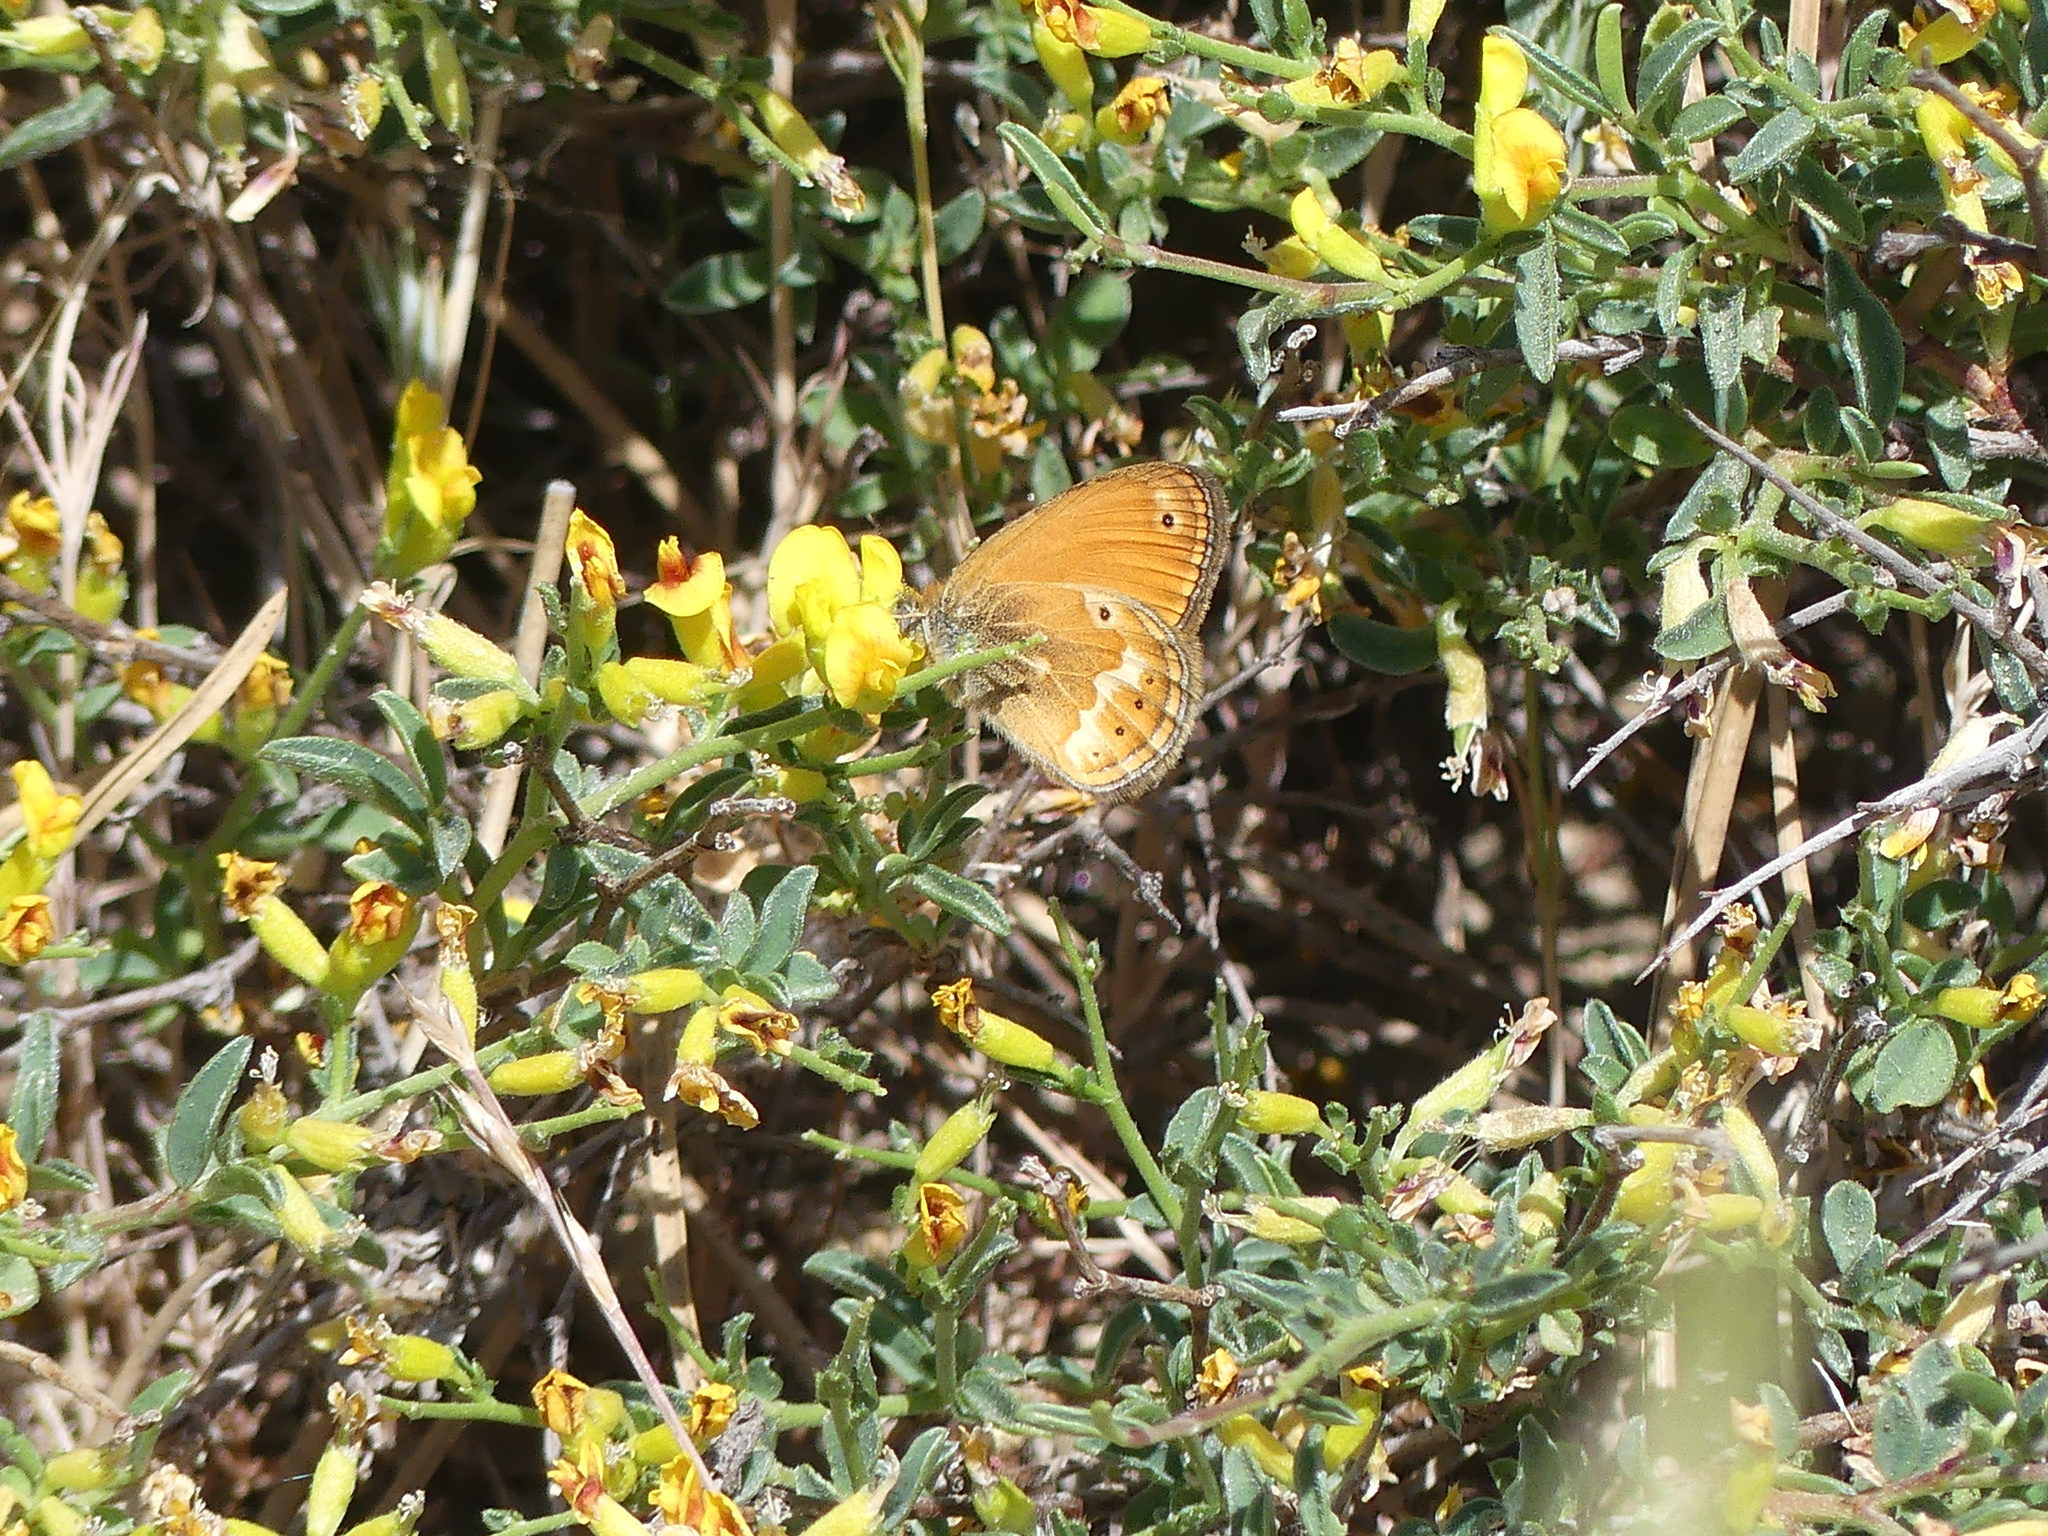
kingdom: Animalia
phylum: Arthropoda
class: Insecta
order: Lepidoptera
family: Nymphalidae
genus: Coenonympha
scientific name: Coenonympha corinna
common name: Corsican heath
